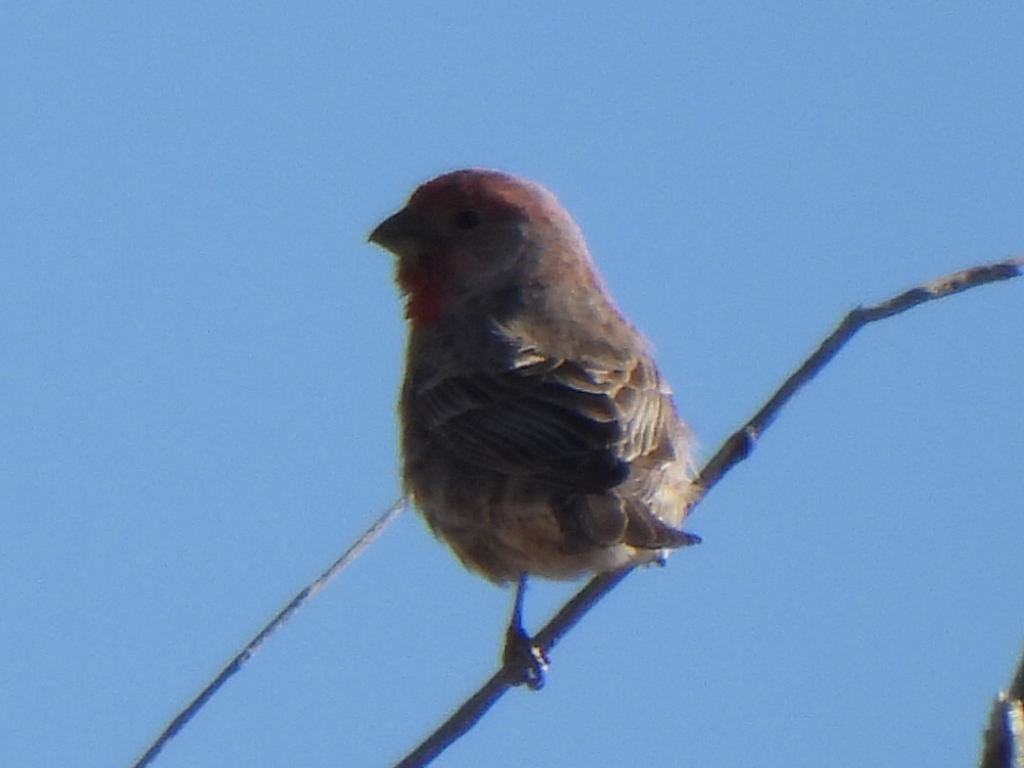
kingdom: Animalia
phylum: Chordata
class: Aves
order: Passeriformes
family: Fringillidae
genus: Haemorhous
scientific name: Haemorhous mexicanus
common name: House finch
